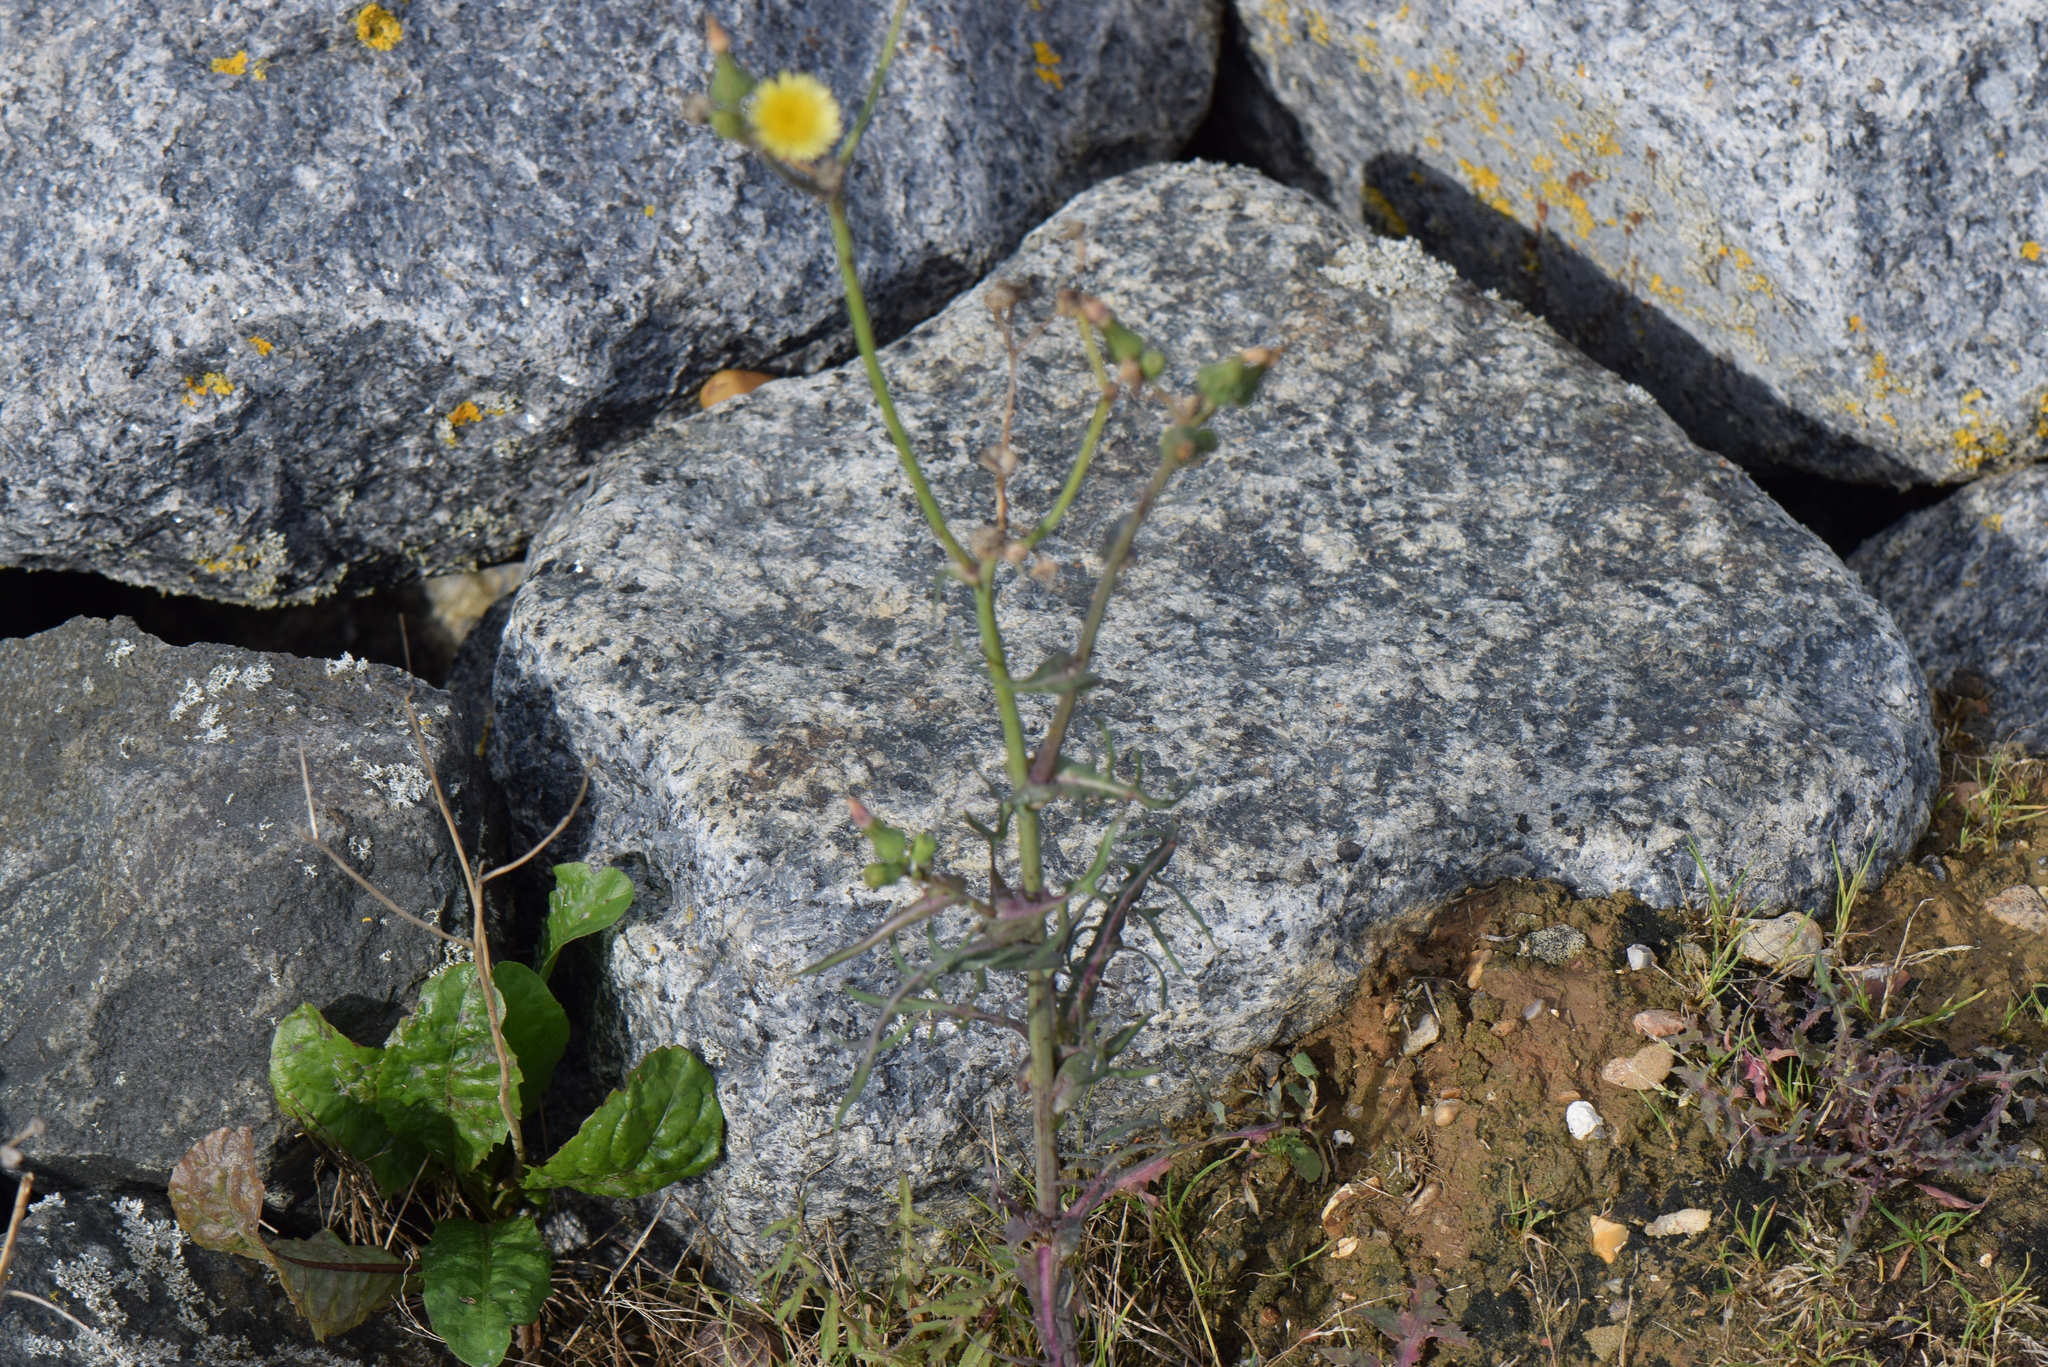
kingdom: Plantae
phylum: Tracheophyta
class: Magnoliopsida
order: Asterales
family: Asteraceae
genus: Sonchus
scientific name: Sonchus oleraceus
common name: Common sowthistle
